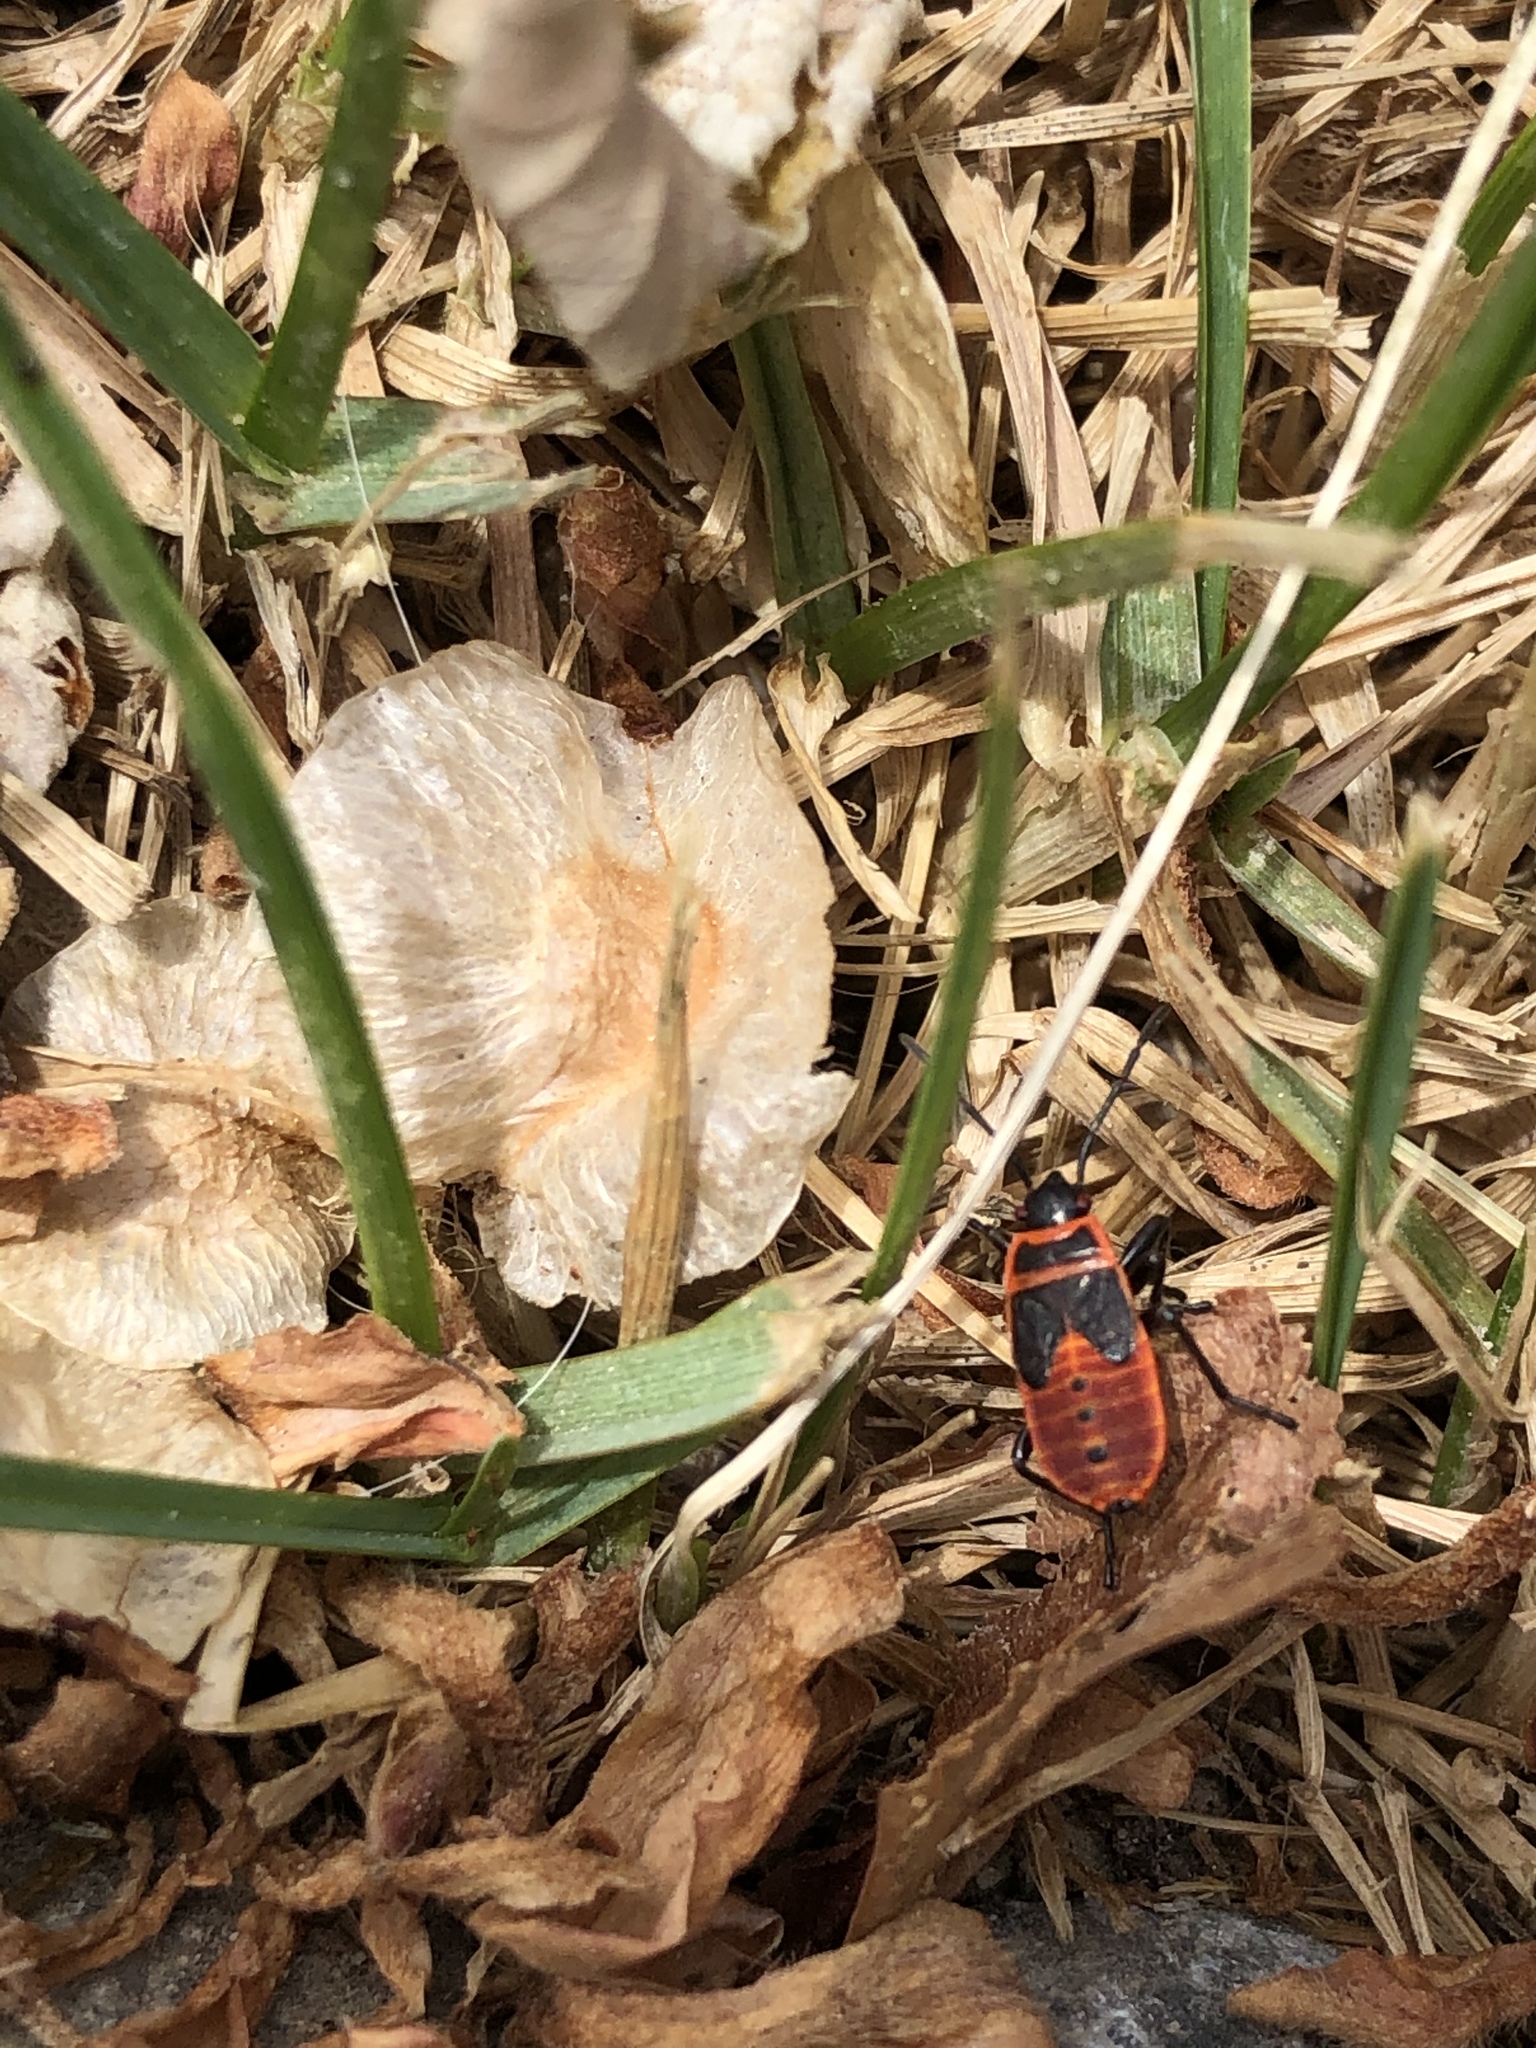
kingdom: Animalia
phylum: Arthropoda
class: Insecta
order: Hemiptera
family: Pyrrhocoridae
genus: Pyrrhocoris
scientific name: Pyrrhocoris apterus
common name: Firebug
